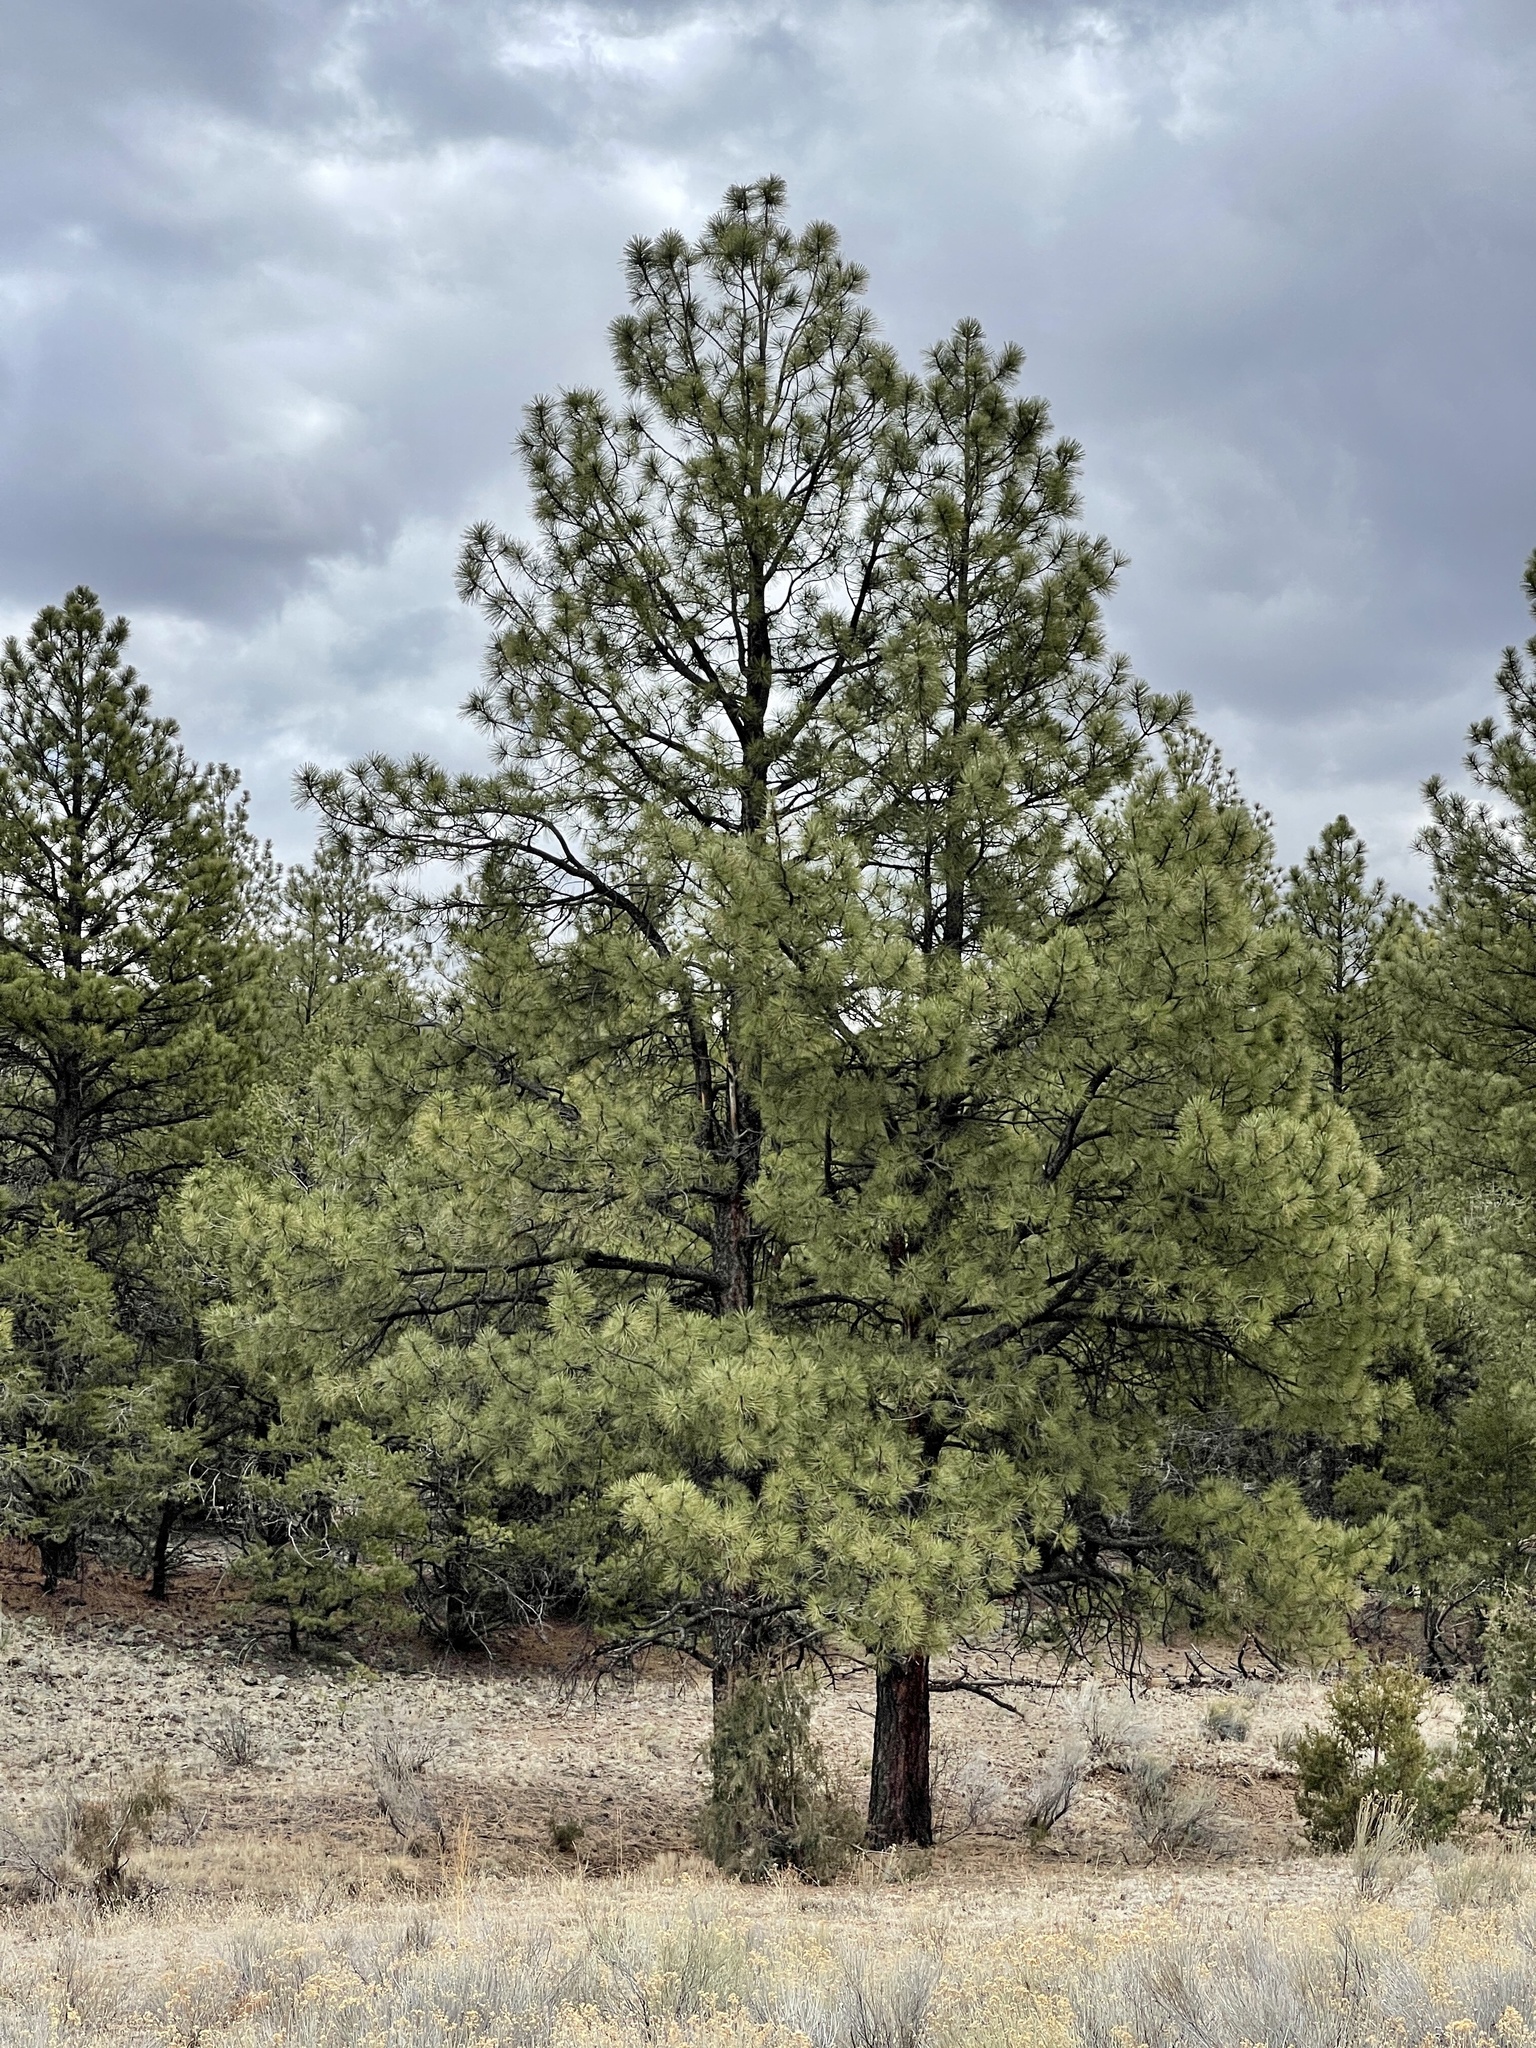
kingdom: Plantae
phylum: Tracheophyta
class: Pinopsida
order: Pinales
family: Pinaceae
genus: Pinus
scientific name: Pinus ponderosa
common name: Western yellow-pine
